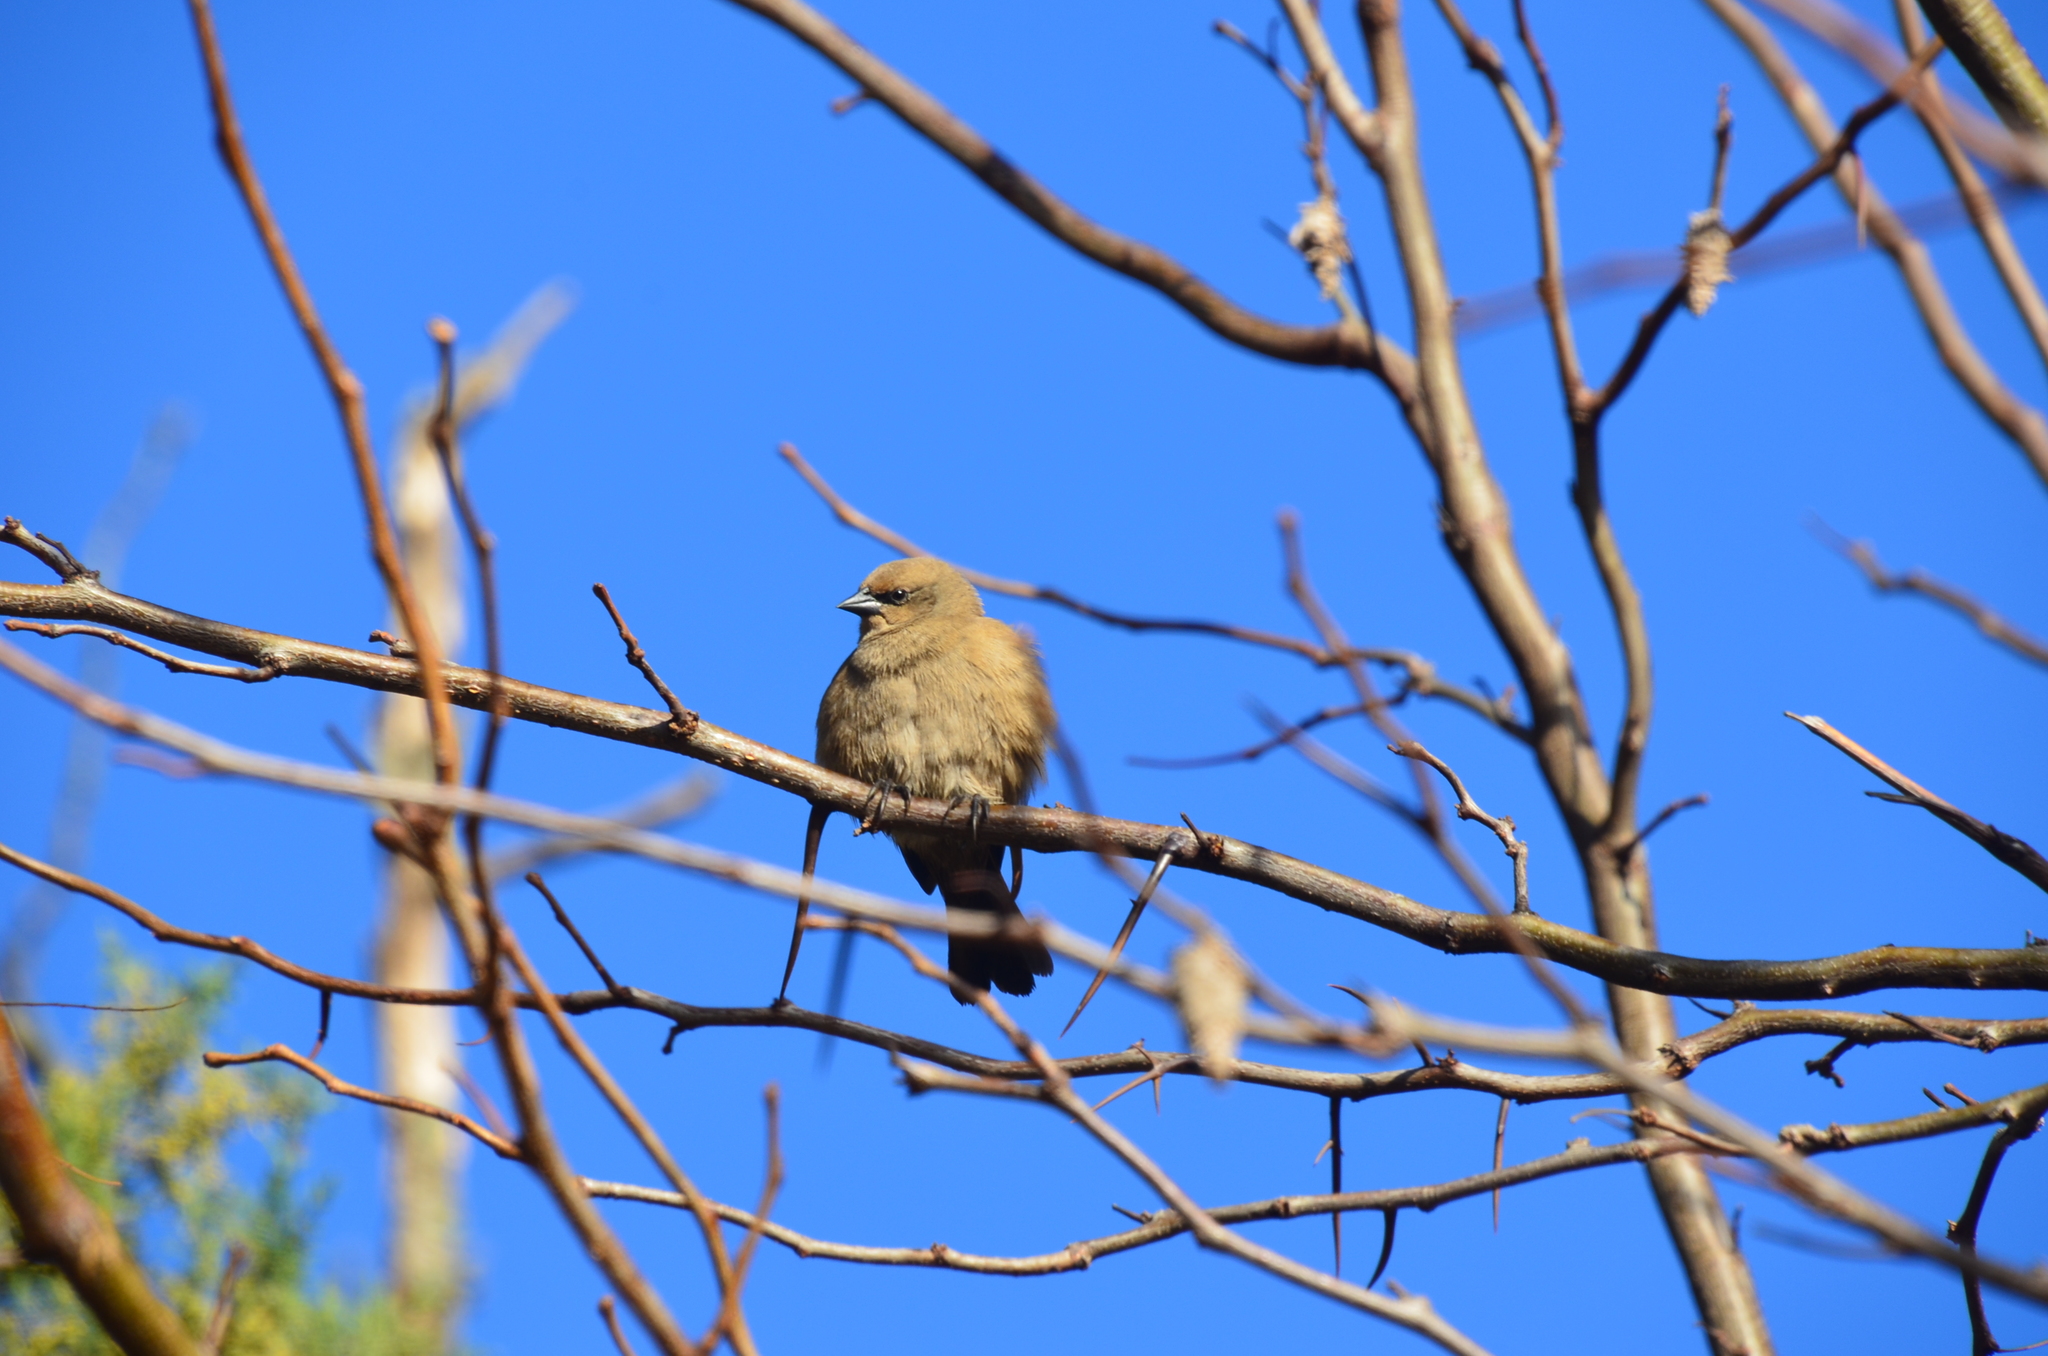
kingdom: Animalia
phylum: Chordata
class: Aves
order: Passeriformes
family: Icteridae
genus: Agelaioides
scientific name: Agelaioides badius
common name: Baywing
